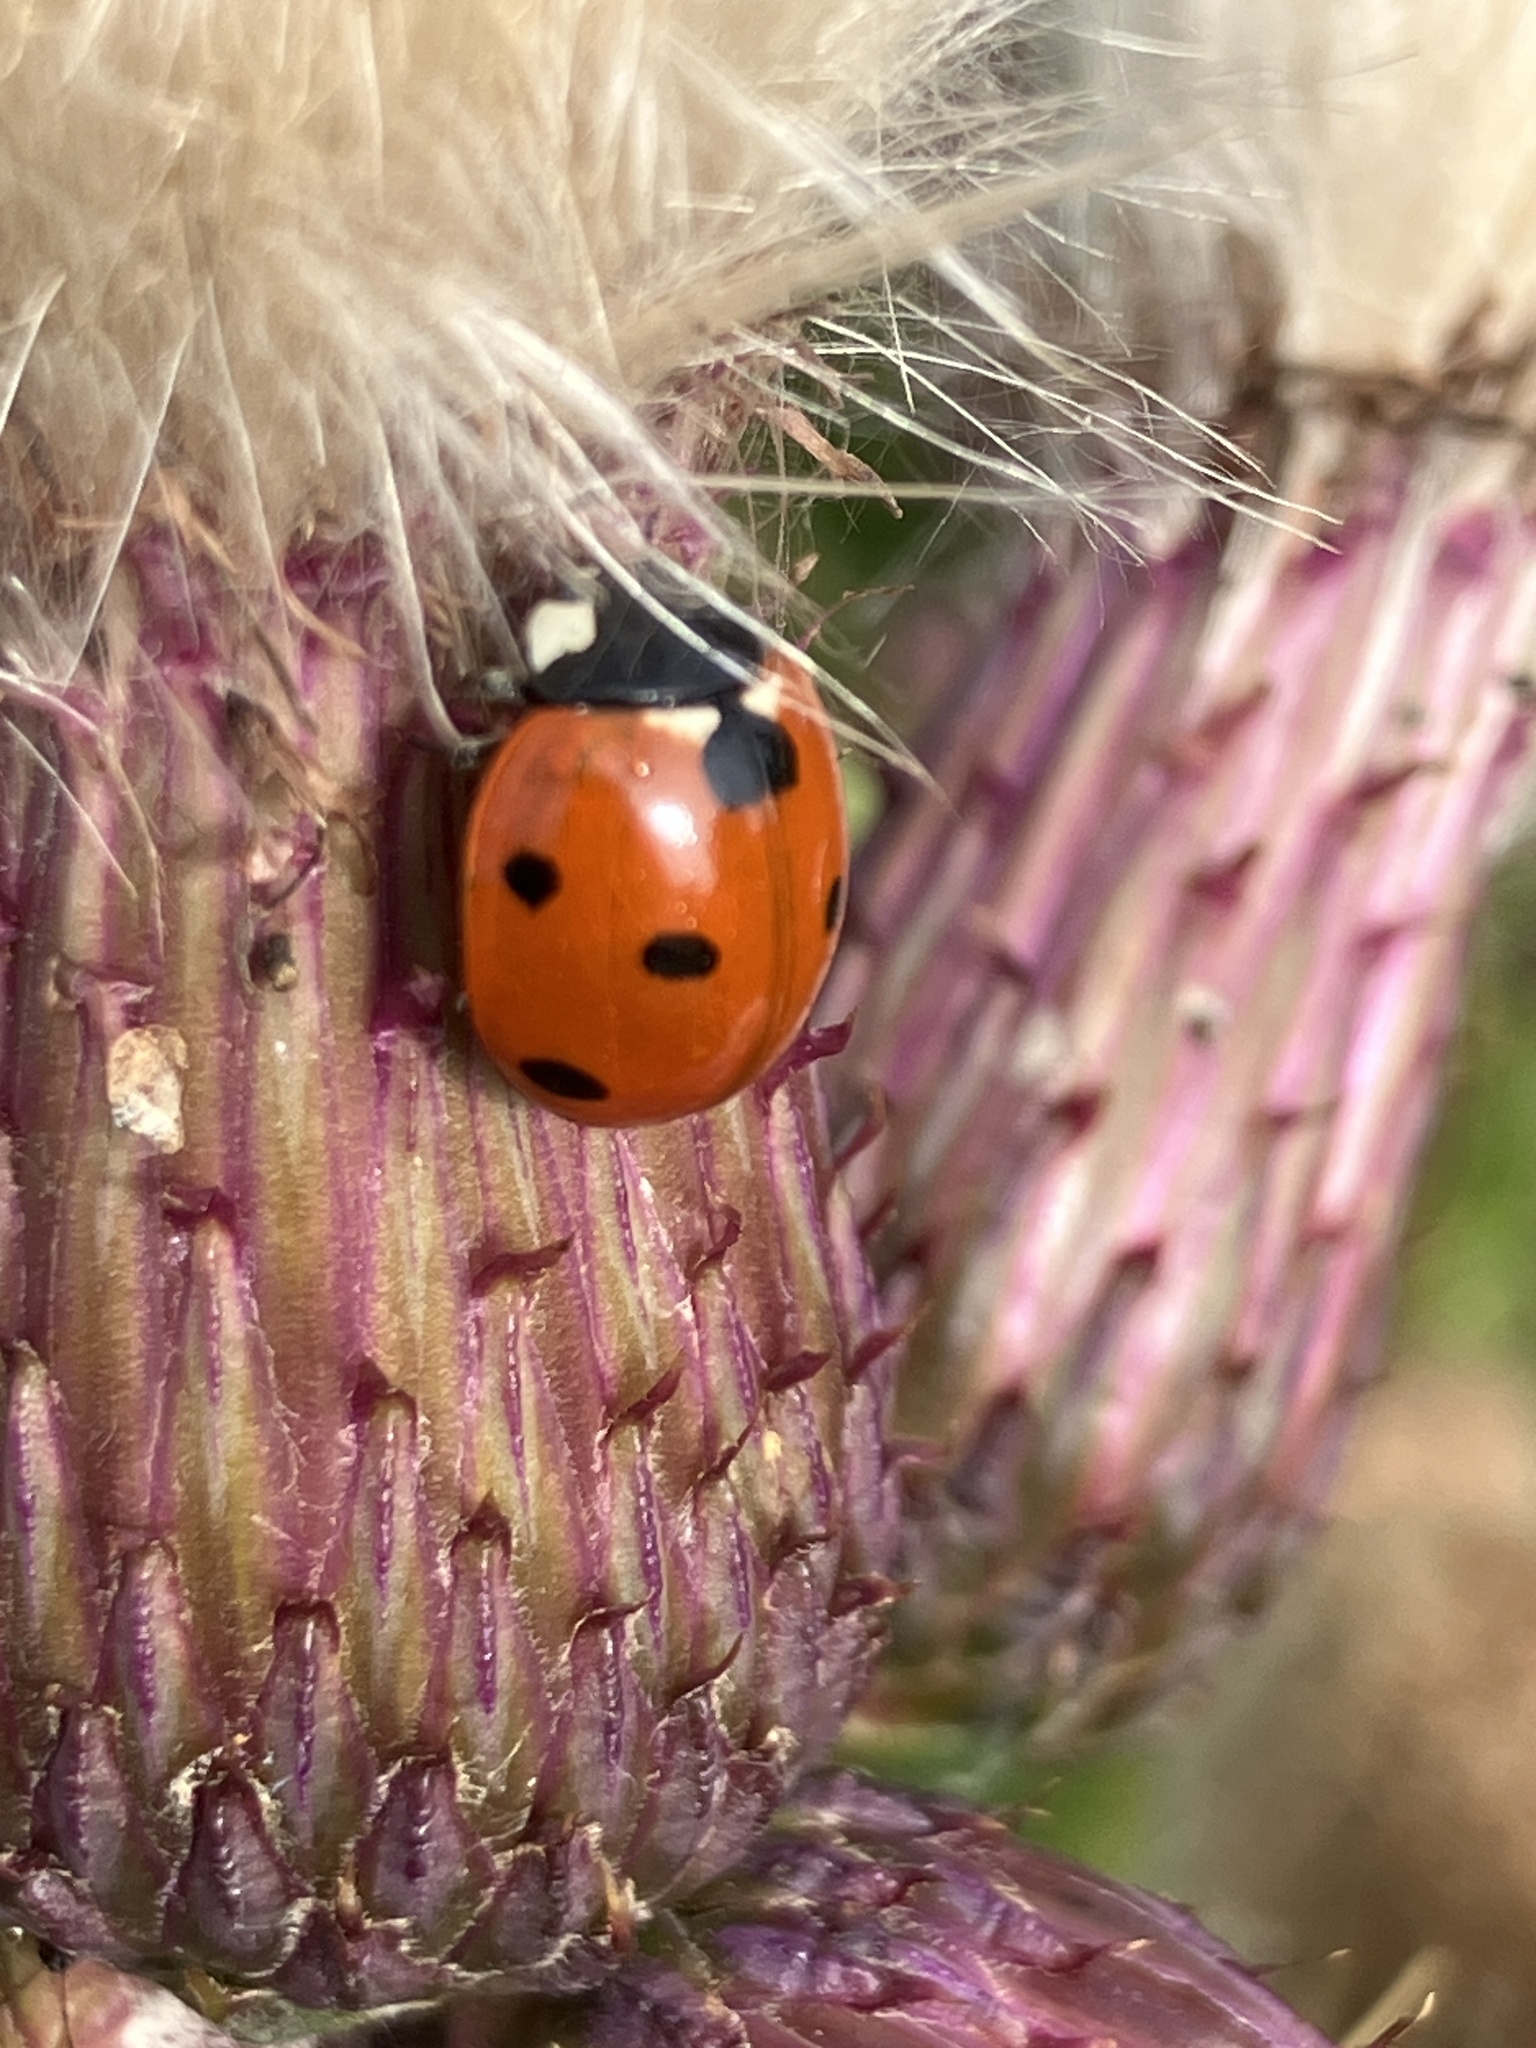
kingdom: Animalia
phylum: Arthropoda
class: Insecta
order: Coleoptera
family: Coccinellidae
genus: Coccinella
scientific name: Coccinella septempunctata
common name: Sevenspotted lady beetle
